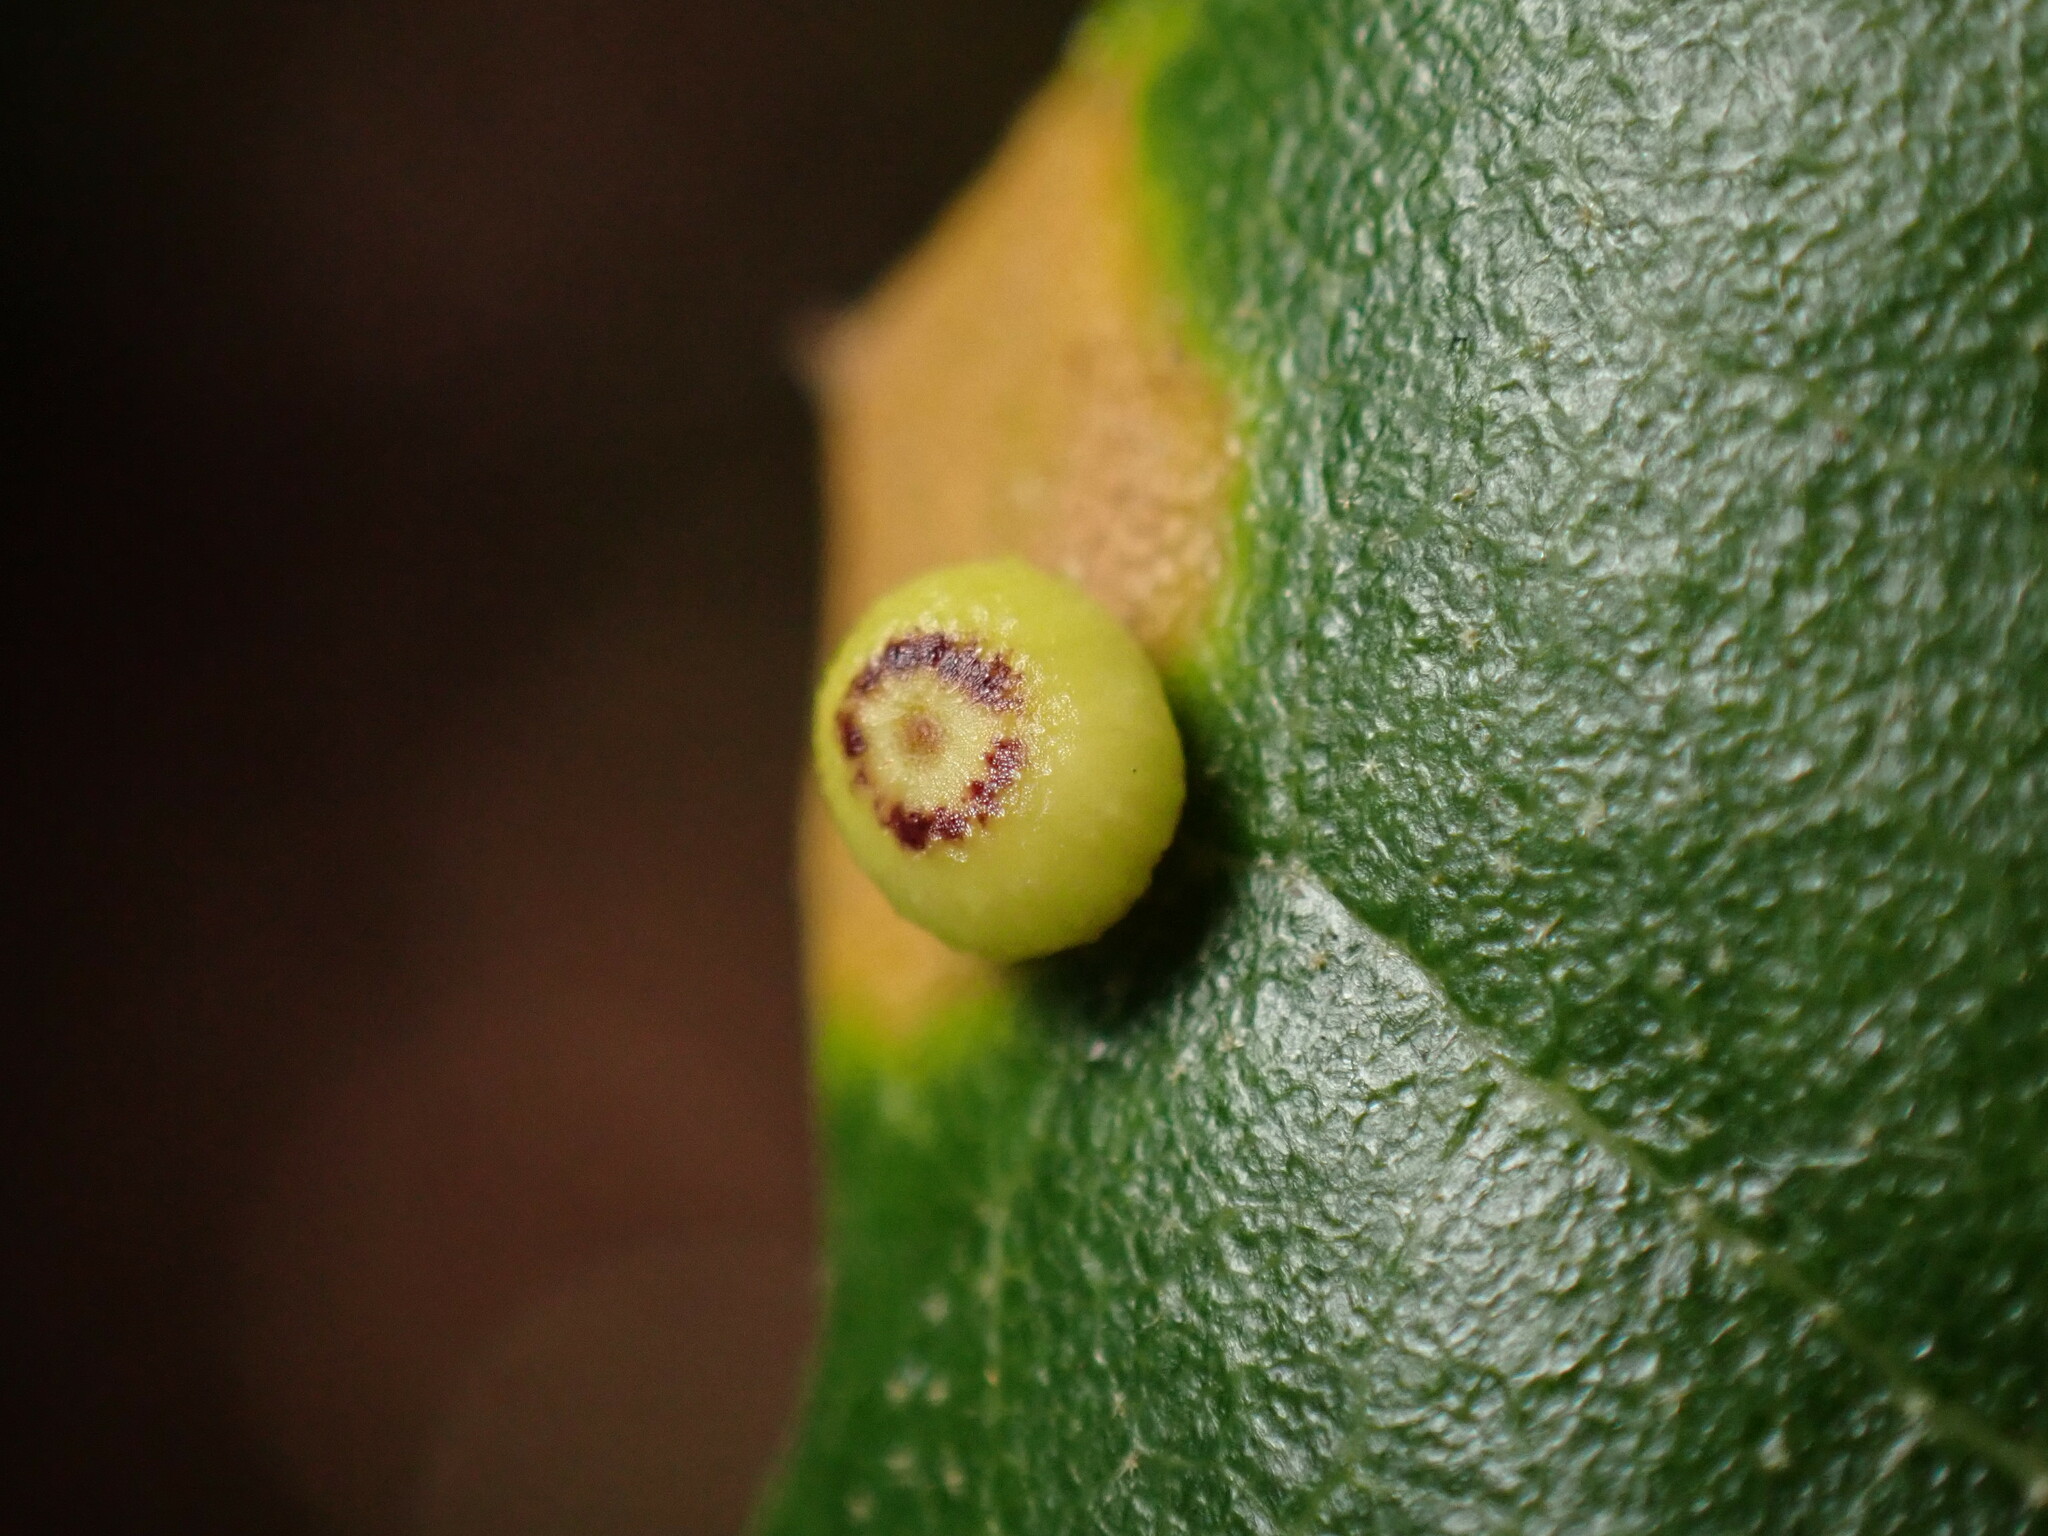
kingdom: Animalia
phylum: Arthropoda
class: Insecta
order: Hymenoptera
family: Cynipidae
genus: Dryocosmus
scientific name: Dryocosmus
